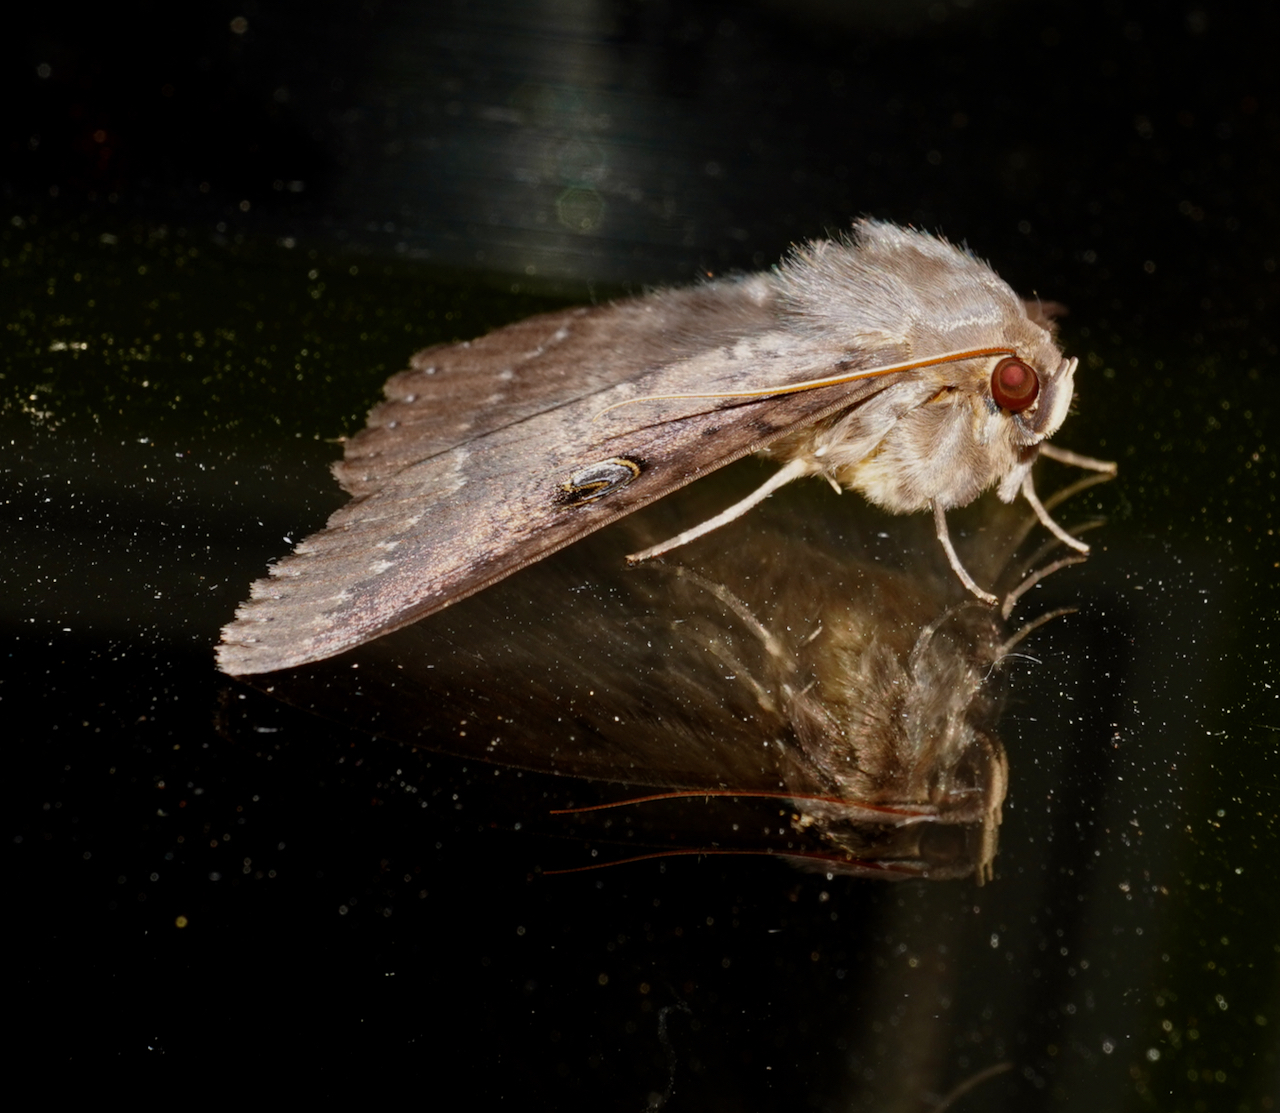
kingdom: Animalia
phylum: Arthropoda
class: Insecta
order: Lepidoptera
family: Erebidae
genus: Dasypodia
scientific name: Dasypodia cymatodes
